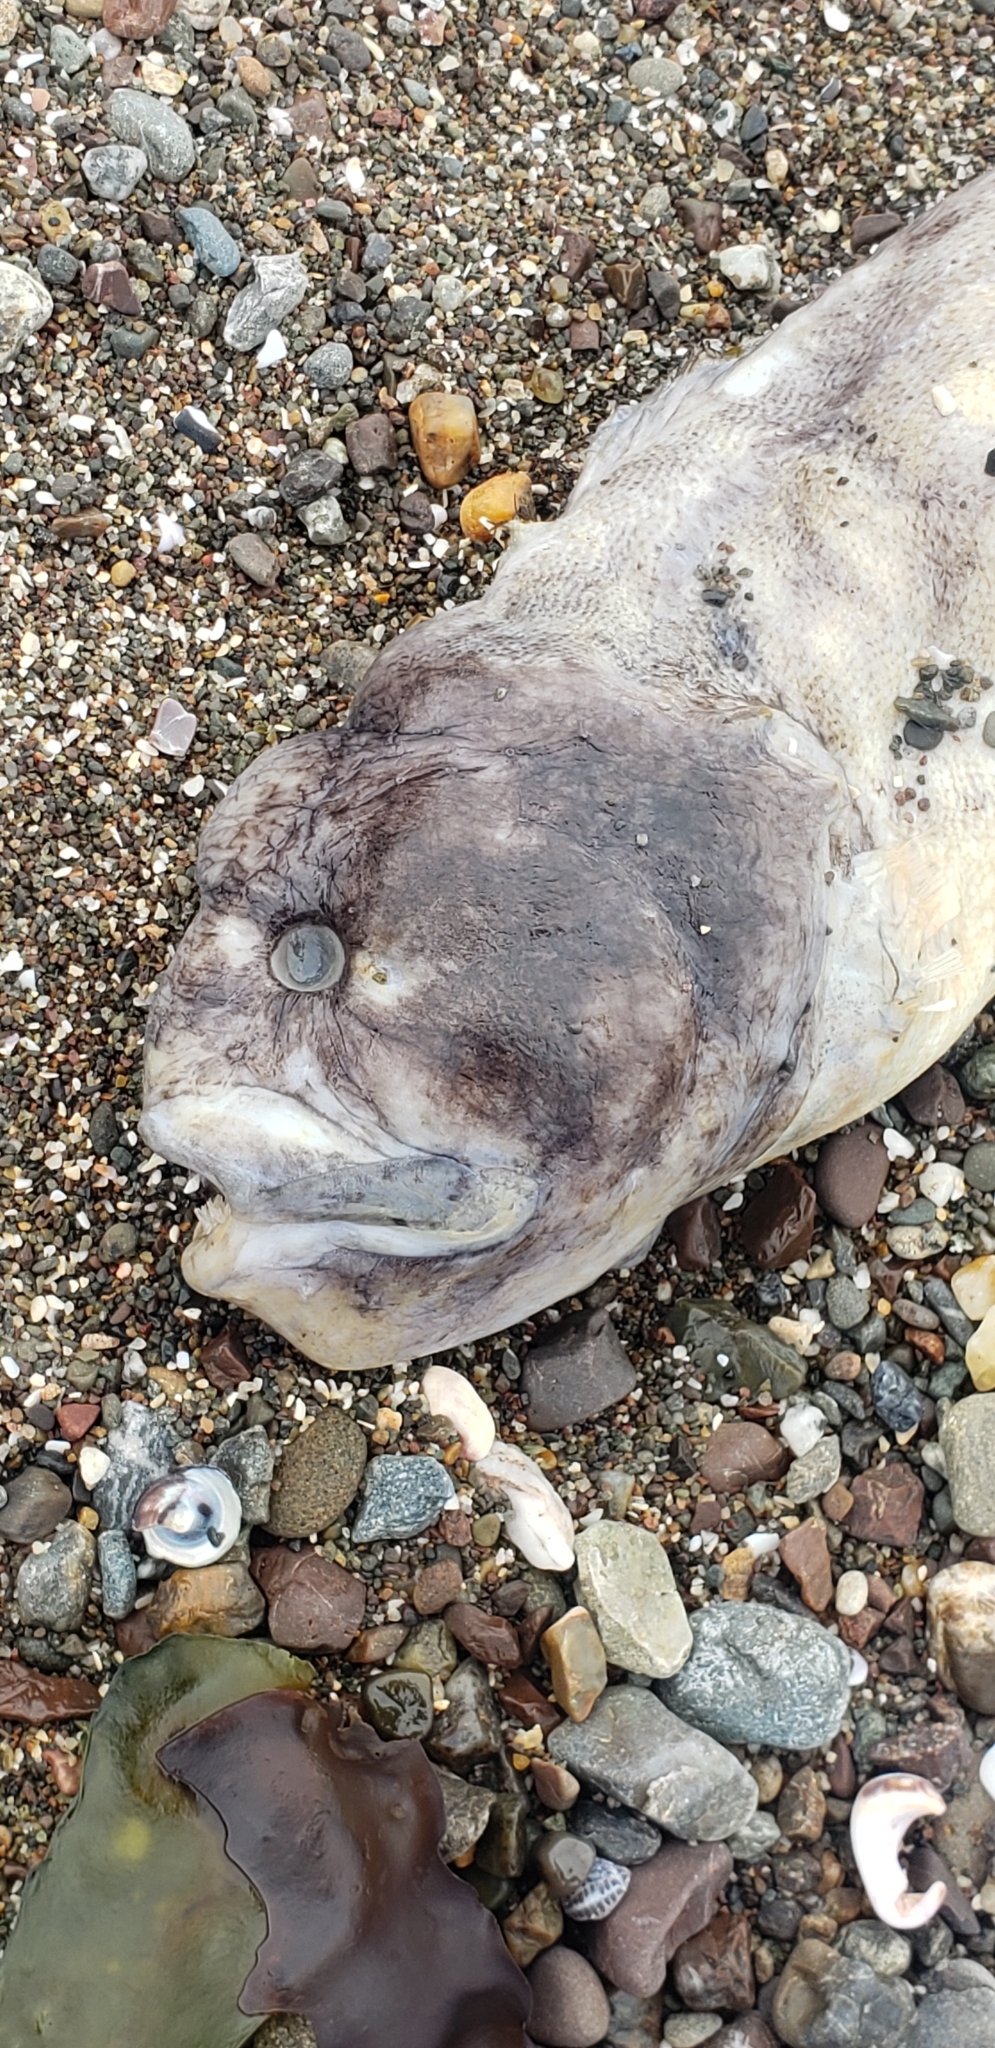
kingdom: Animalia
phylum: Chordata
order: Perciformes
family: Stichaeidae
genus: Cebidichthys
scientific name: Cebidichthys violaceus
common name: Monkeyface prickleback
